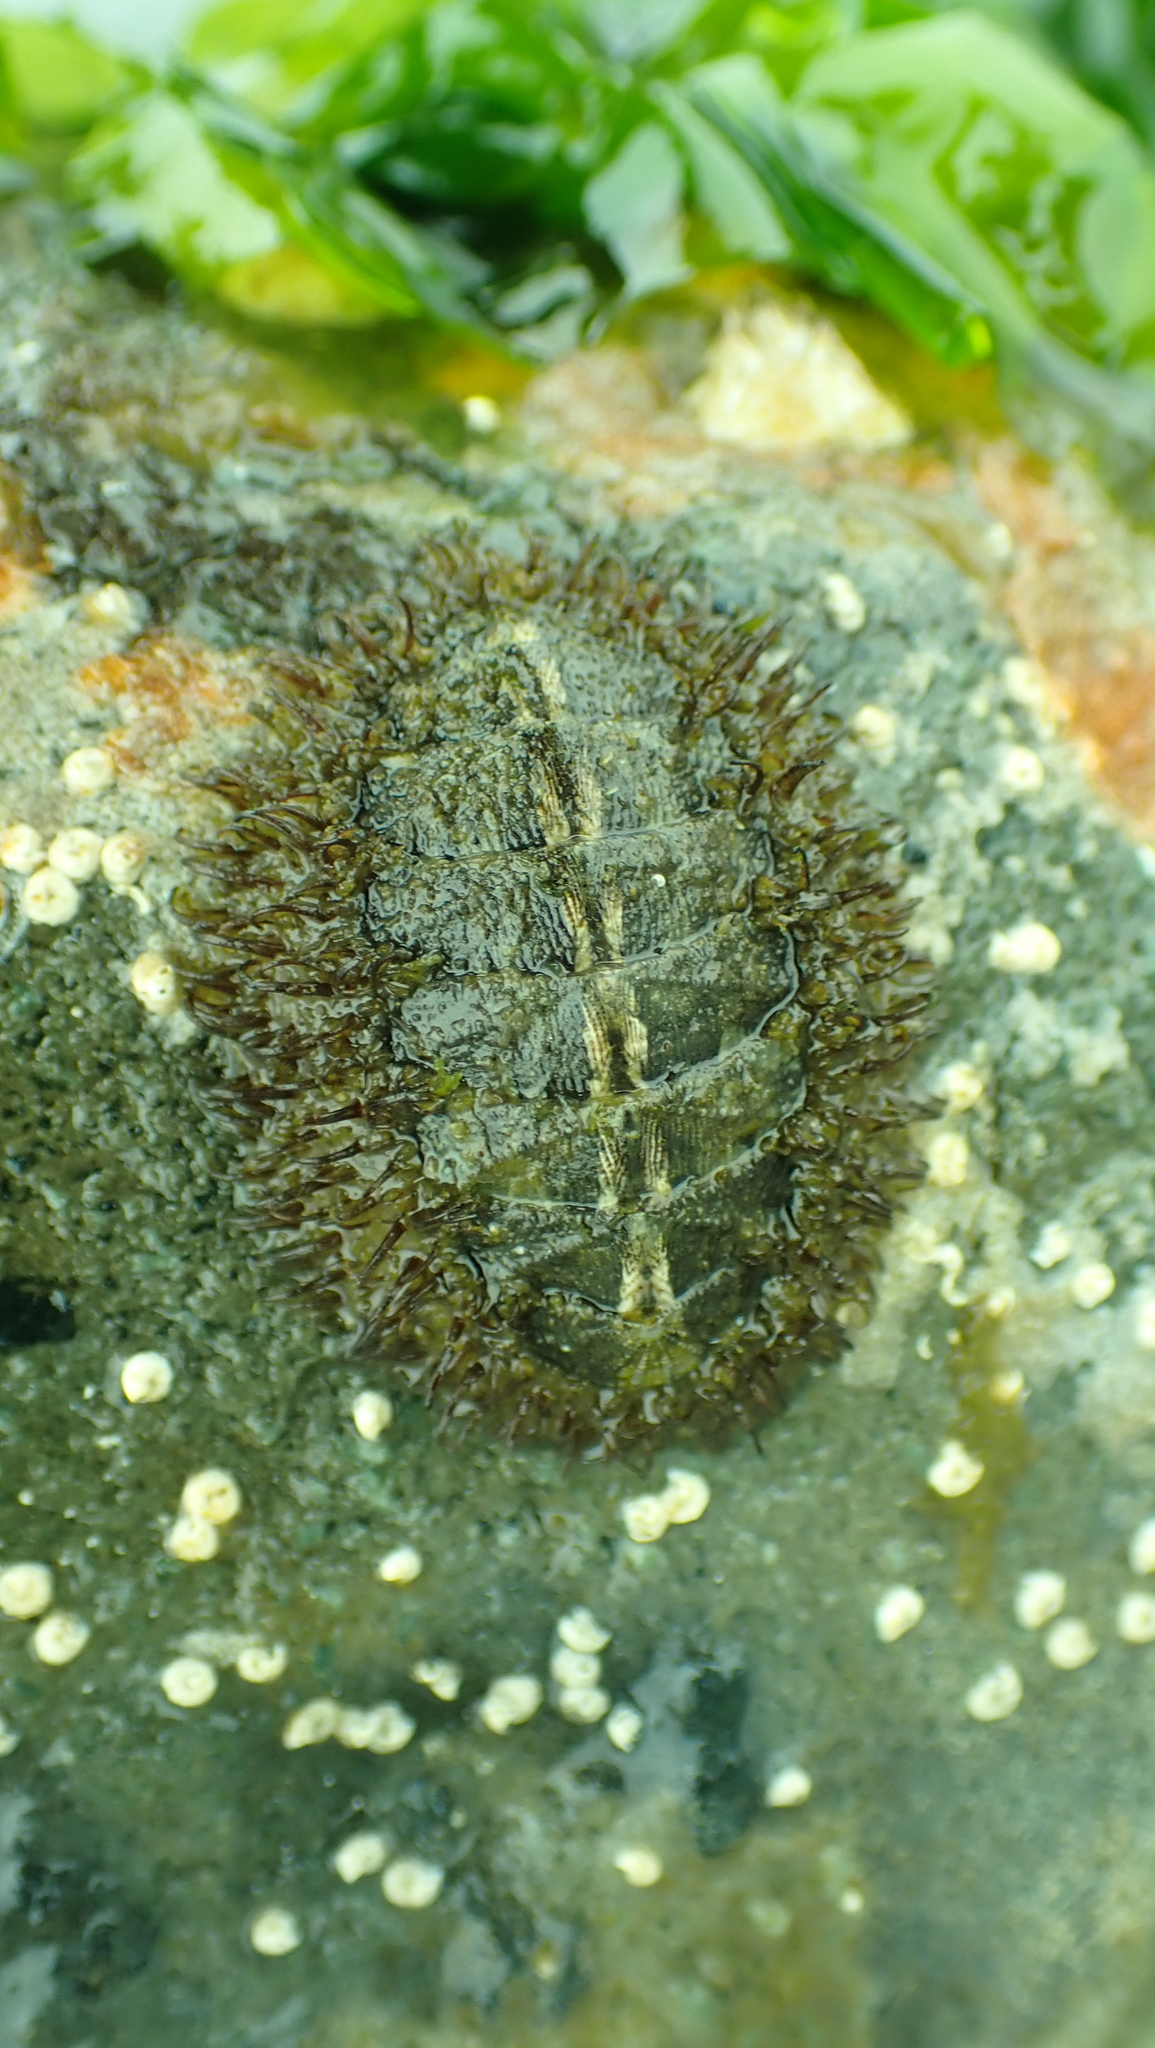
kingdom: Animalia
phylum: Mollusca
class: Polyplacophora
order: Chitonida
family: Mopaliidae
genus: Mopalia
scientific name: Mopalia muscosa
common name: Mossy chiton
